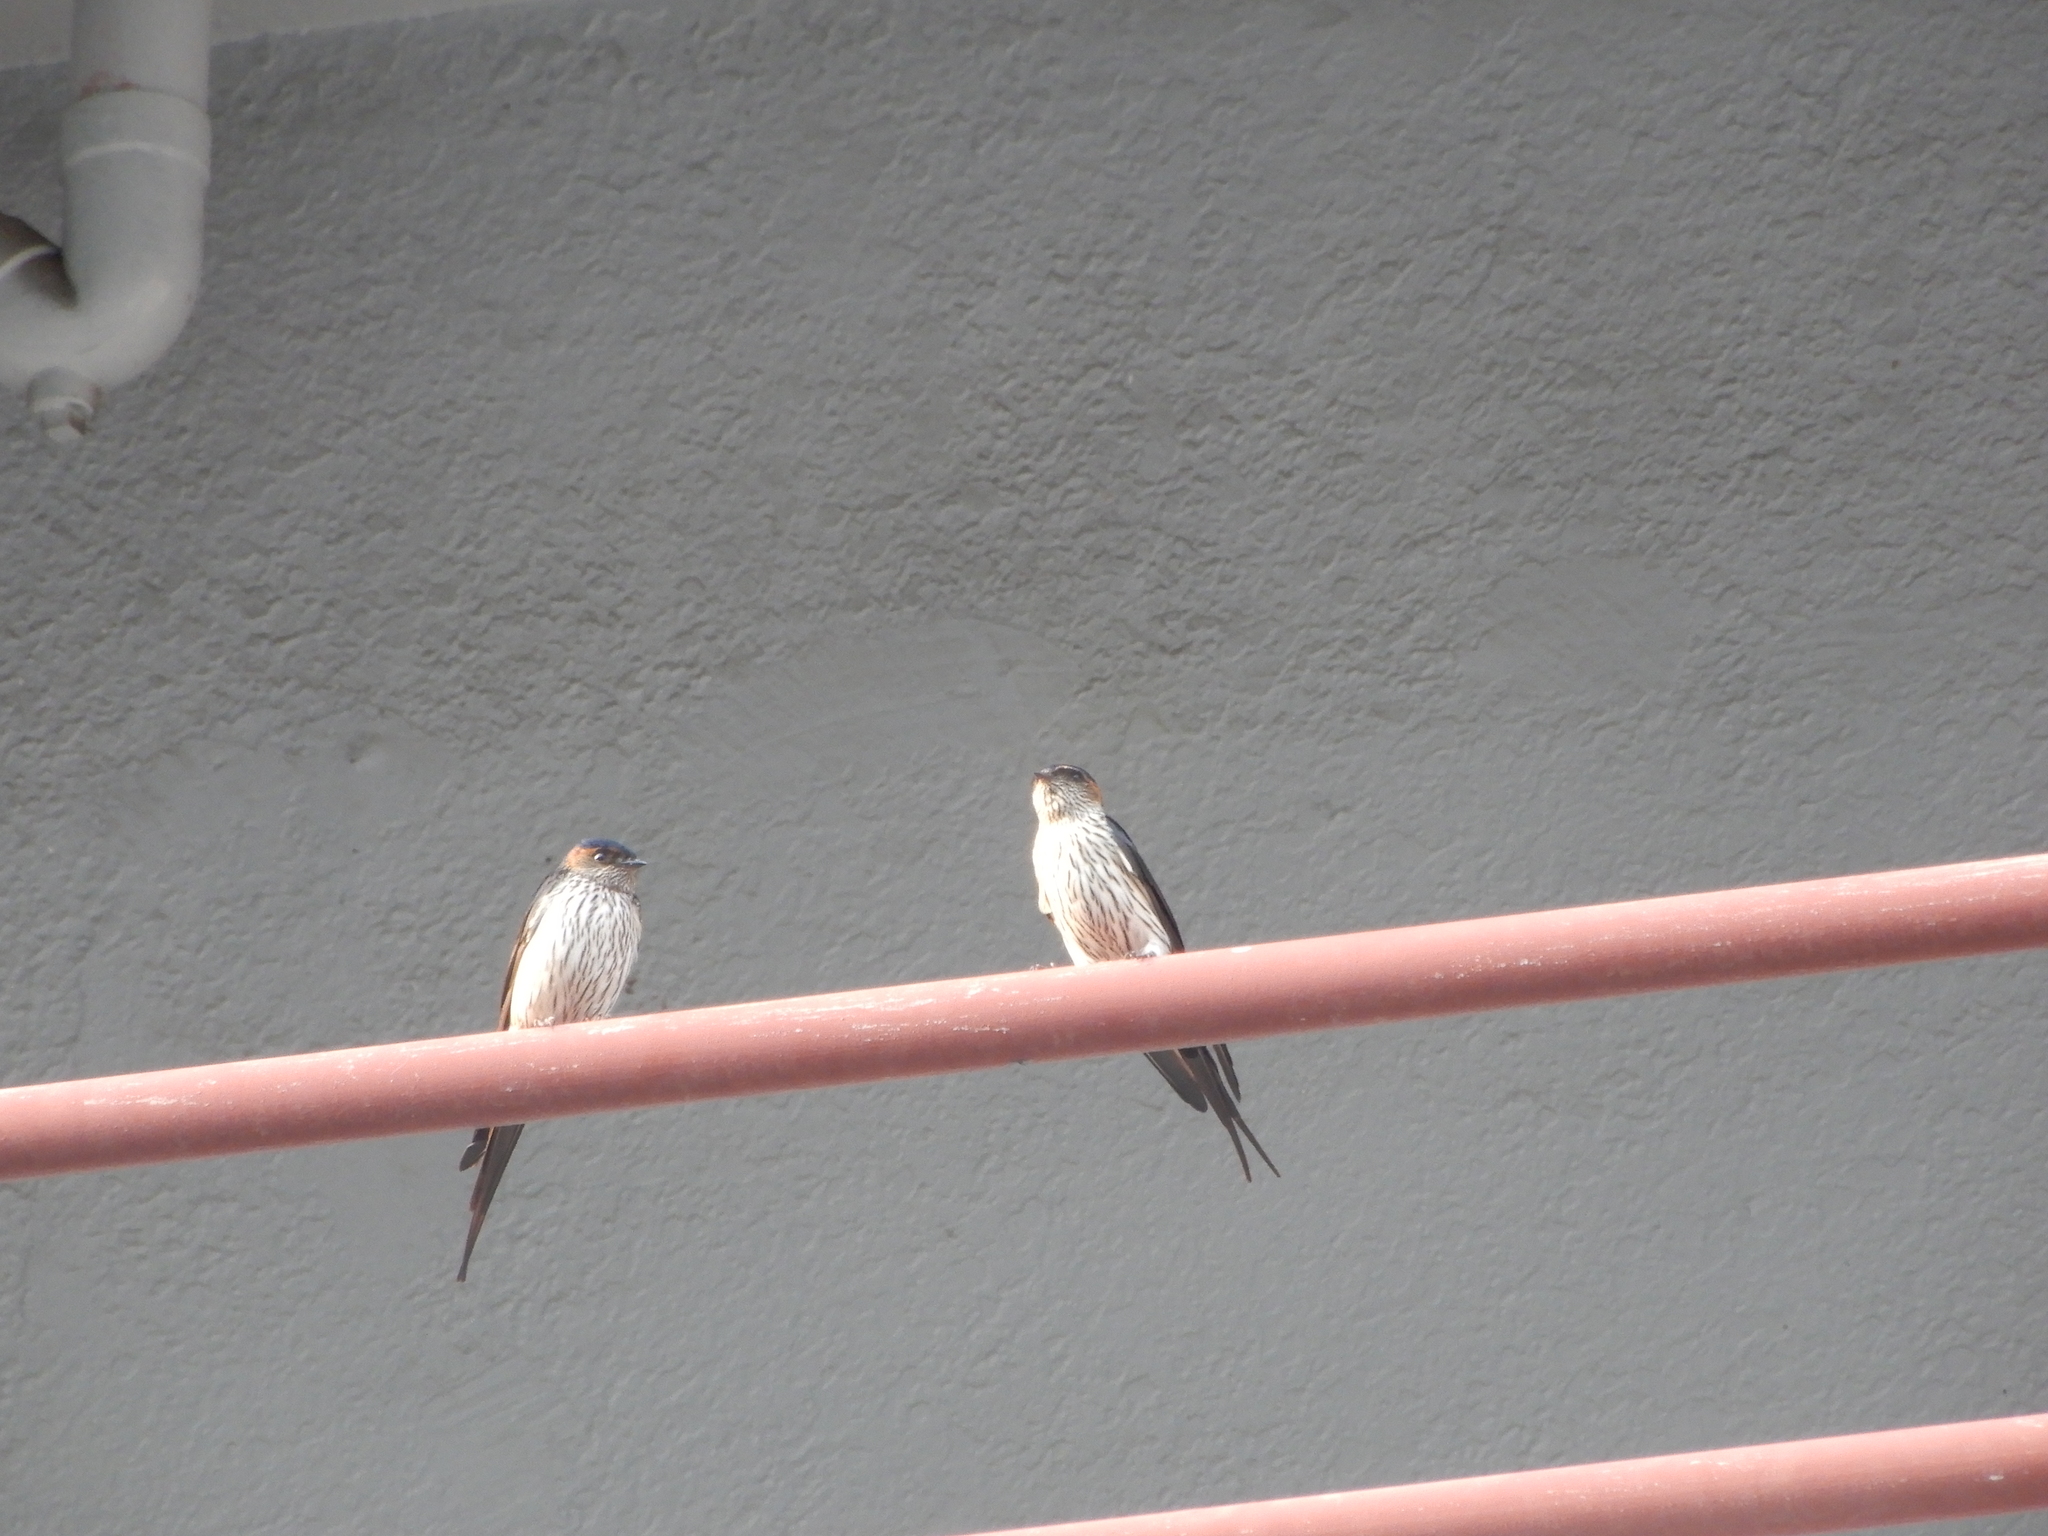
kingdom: Animalia
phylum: Chordata
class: Aves
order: Passeriformes
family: Hirundinidae
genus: Cecropis
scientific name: Cecropis striolata
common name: Striated swallow
